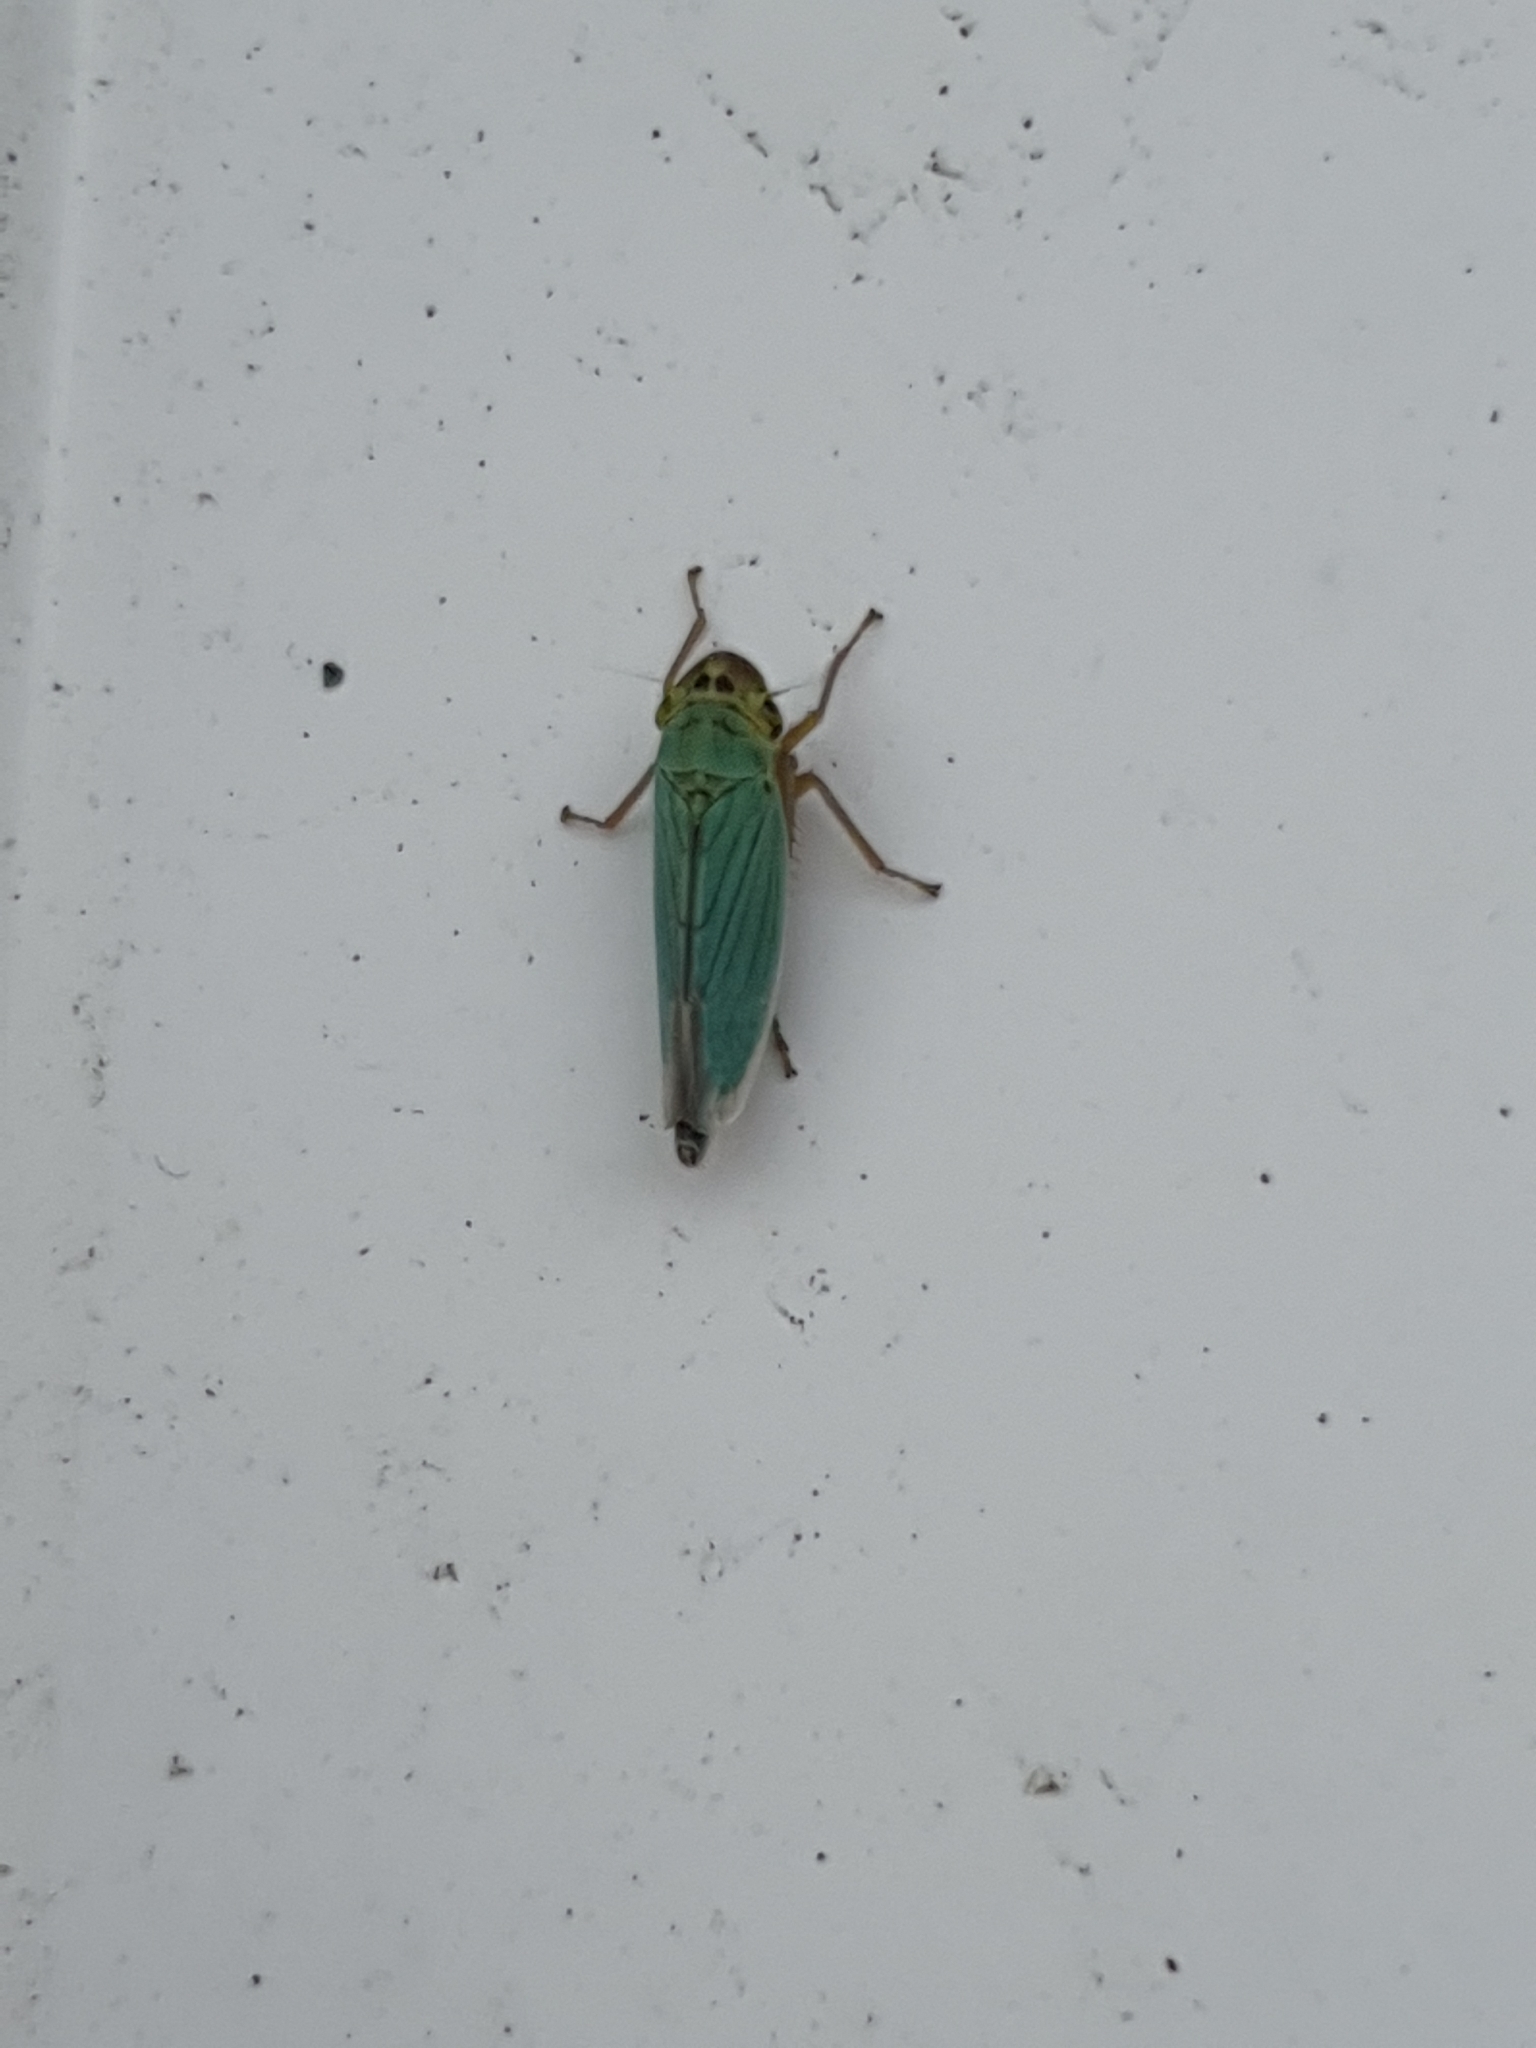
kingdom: Animalia
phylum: Arthropoda
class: Insecta
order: Hemiptera
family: Cicadellidae
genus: Cicadella
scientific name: Cicadella viridis
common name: Leafhopper
